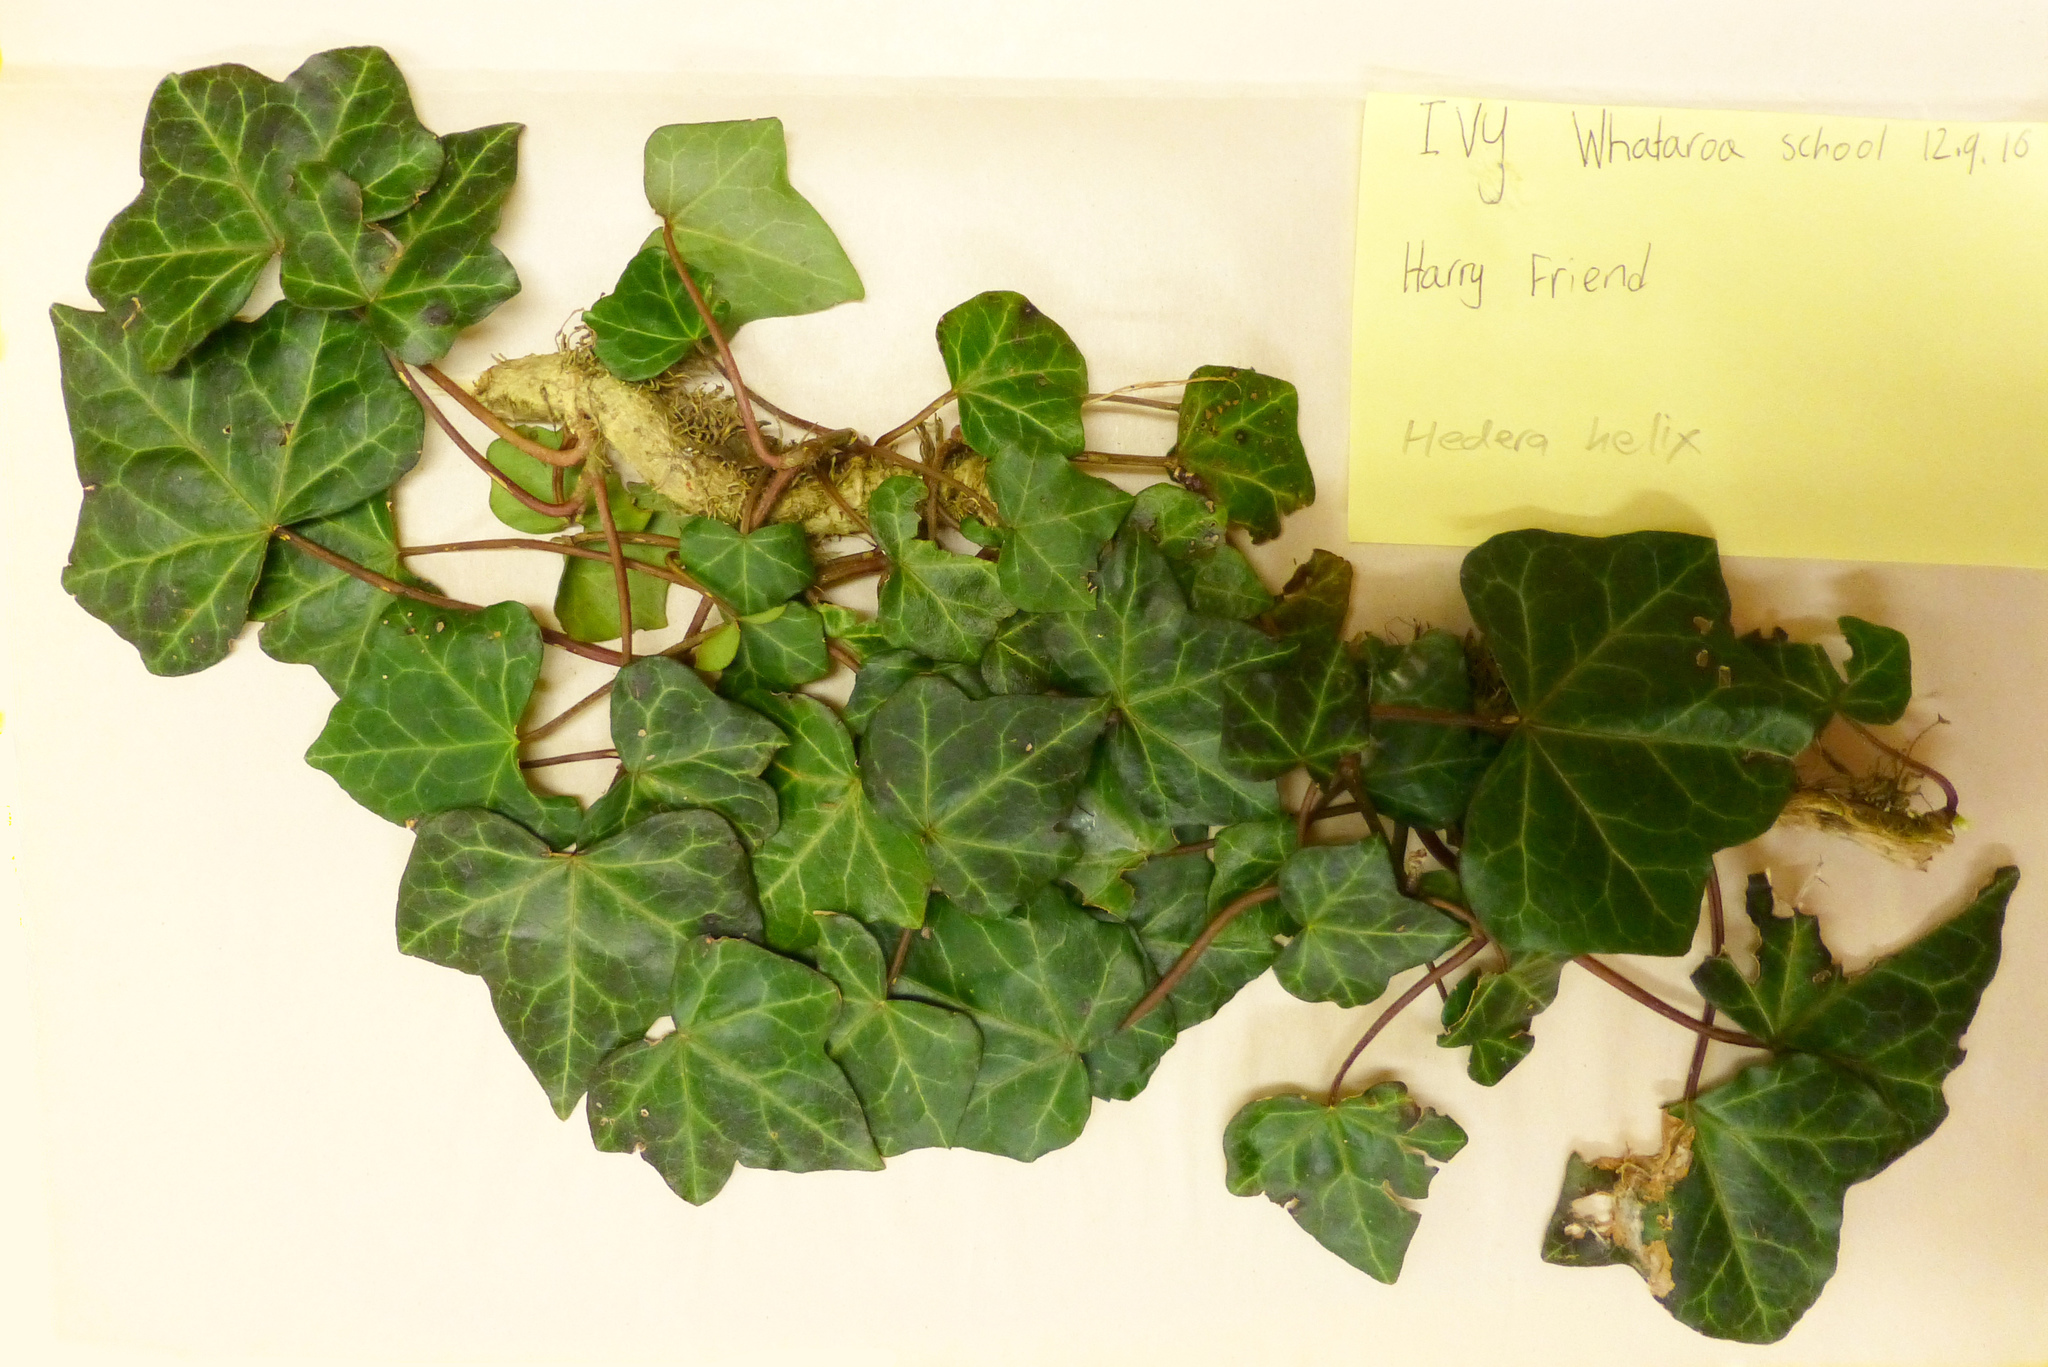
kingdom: Plantae
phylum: Tracheophyta
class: Magnoliopsida
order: Apiales
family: Araliaceae
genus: Hedera
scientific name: Hedera helix
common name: Ivy
